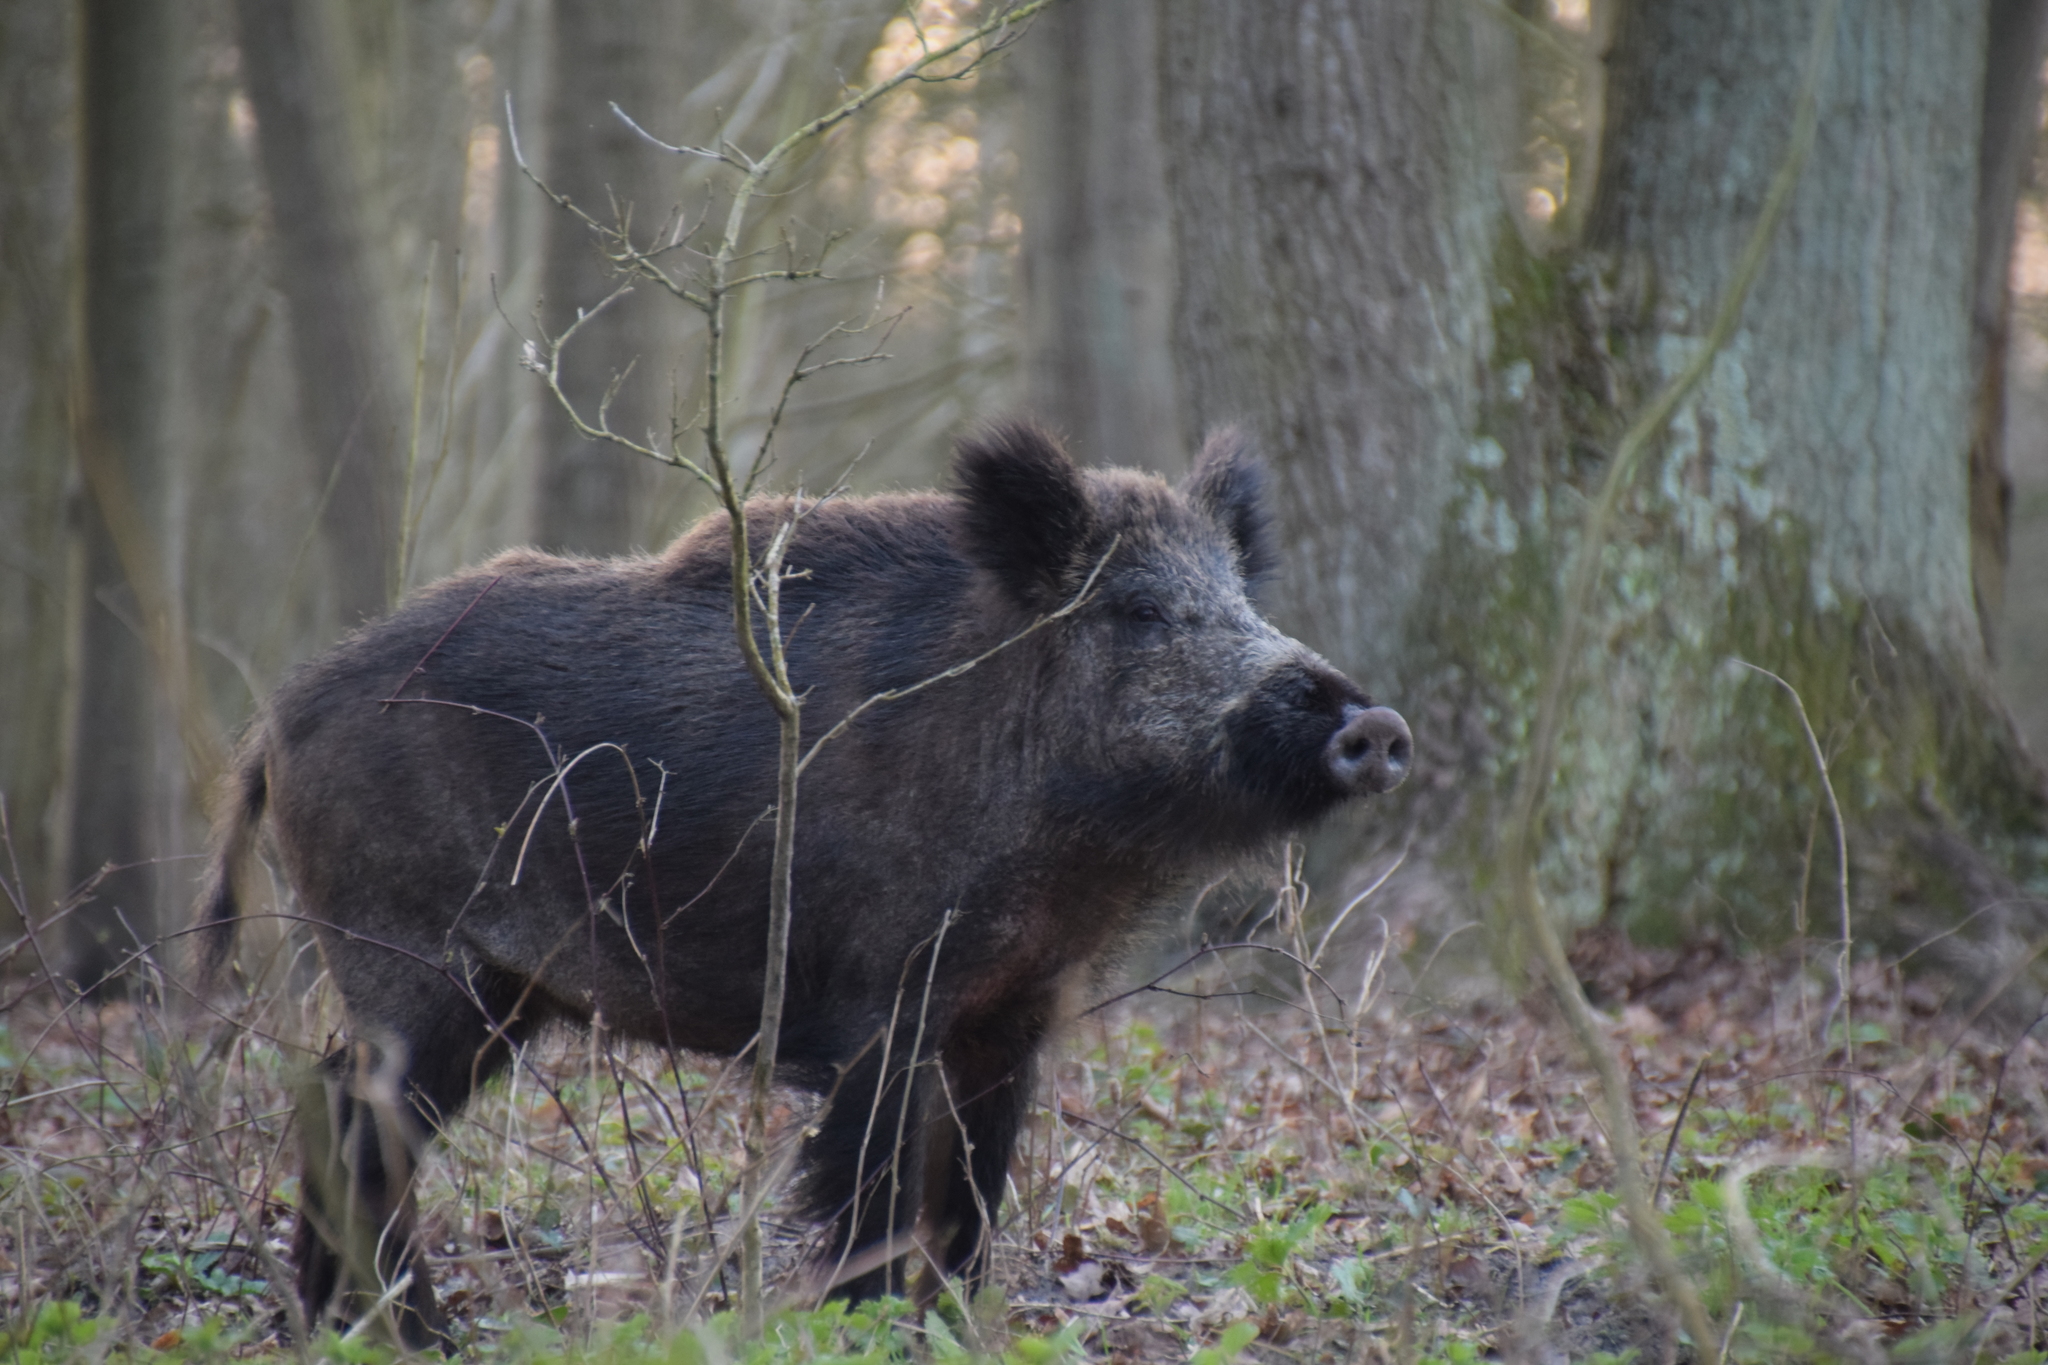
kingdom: Animalia
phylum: Chordata
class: Mammalia
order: Artiodactyla
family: Suidae
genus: Sus
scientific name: Sus scrofa
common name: Wild boar
